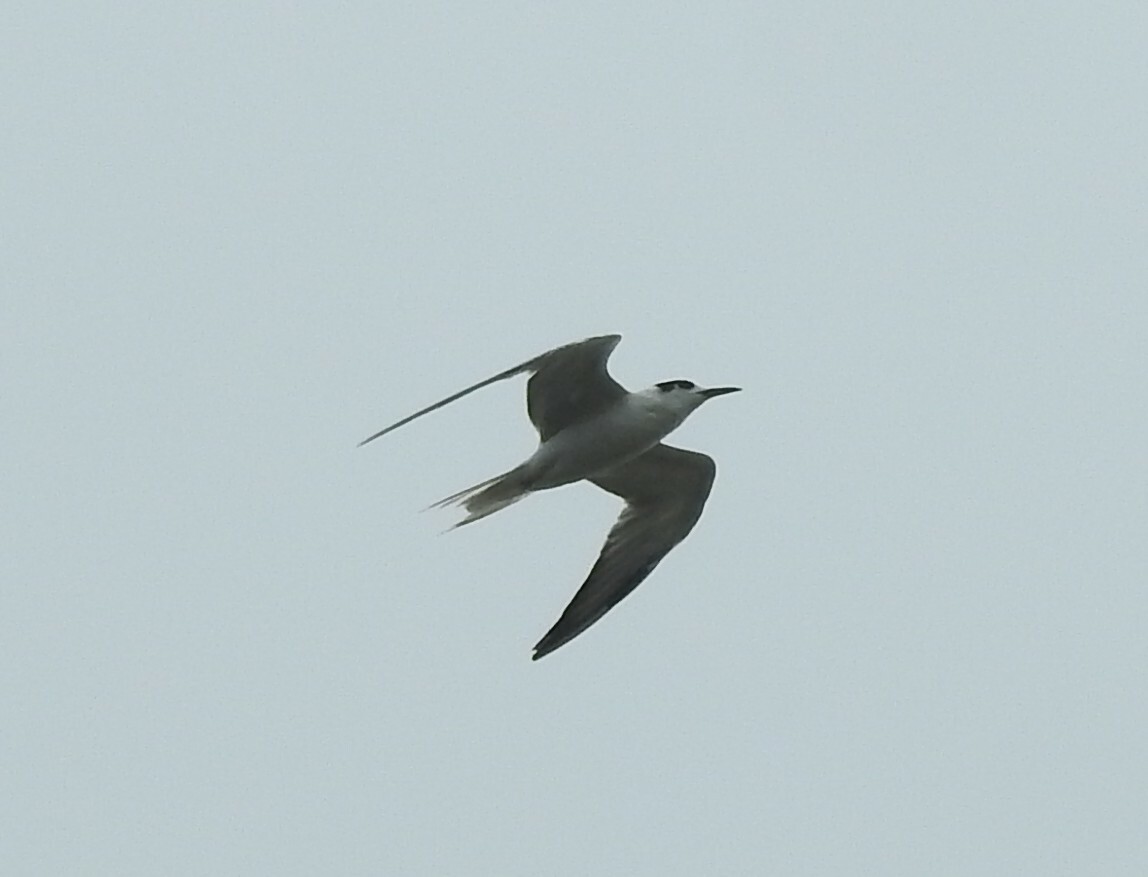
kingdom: Animalia
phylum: Chordata
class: Aves
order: Charadriiformes
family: Laridae
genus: Sterna
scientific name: Sterna hirundo
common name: Common tern
